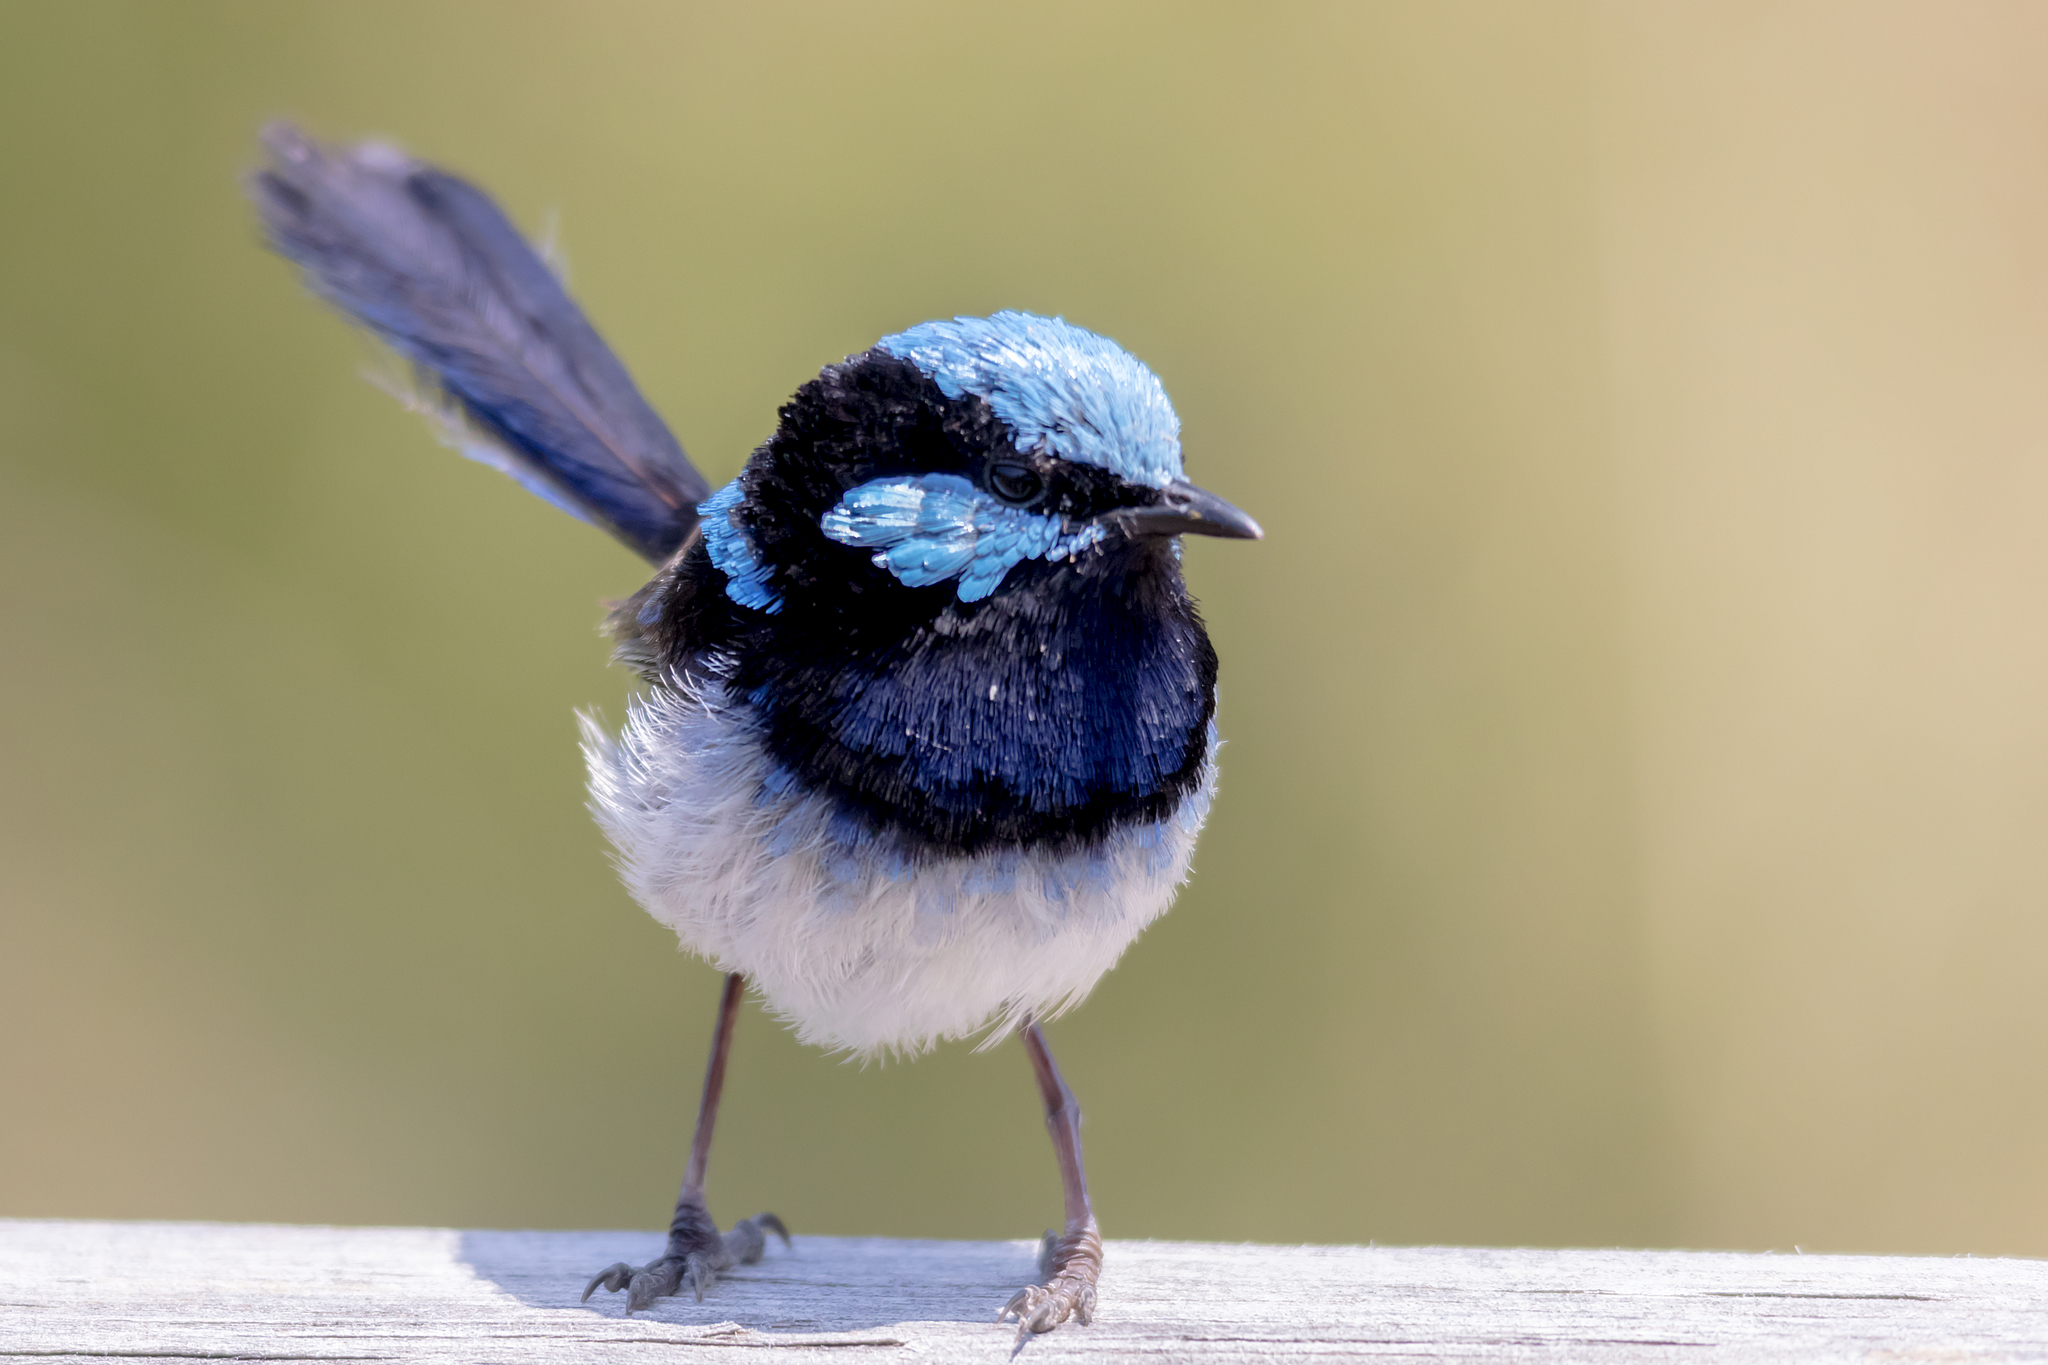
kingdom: Animalia
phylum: Chordata
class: Aves
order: Passeriformes
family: Maluridae
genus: Malurus
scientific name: Malurus cyaneus
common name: Superb fairywren
